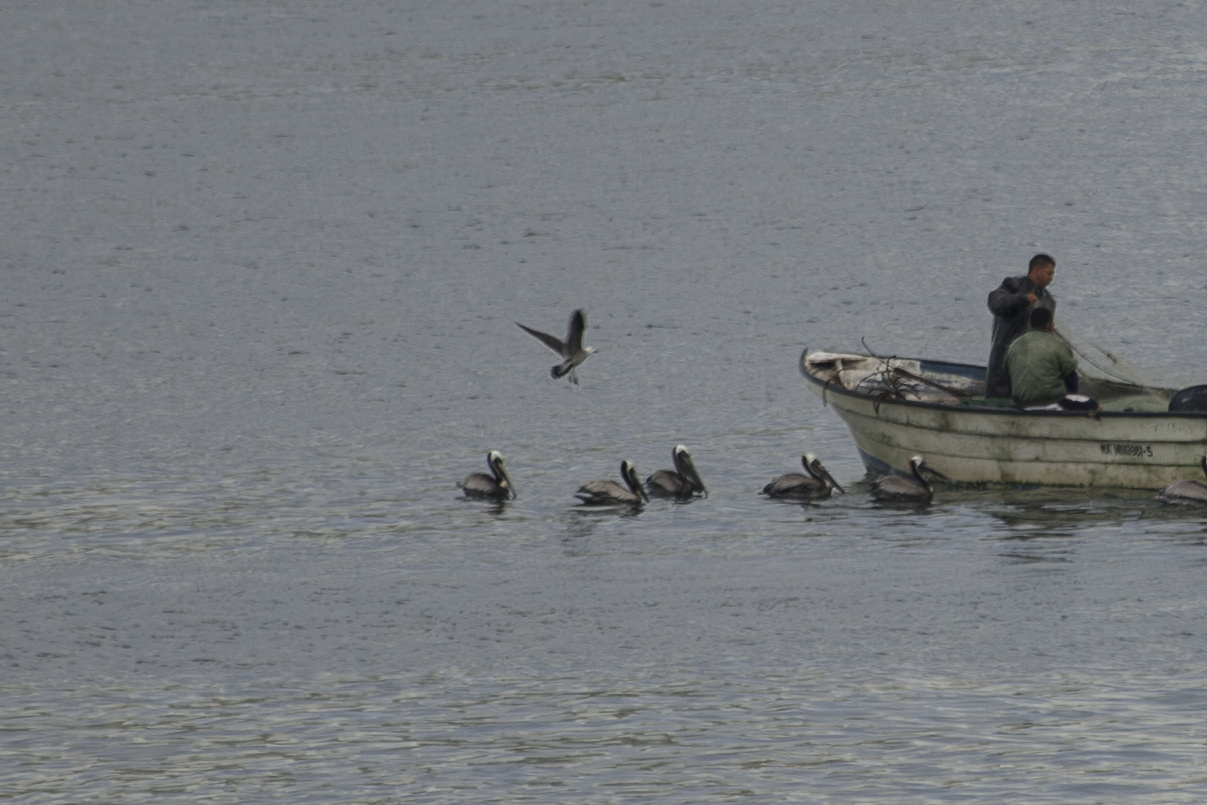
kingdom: Animalia
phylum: Chordata
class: Aves
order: Pelecaniformes
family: Pelecanidae
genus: Pelecanus
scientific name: Pelecanus occidentalis
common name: Brown pelican
